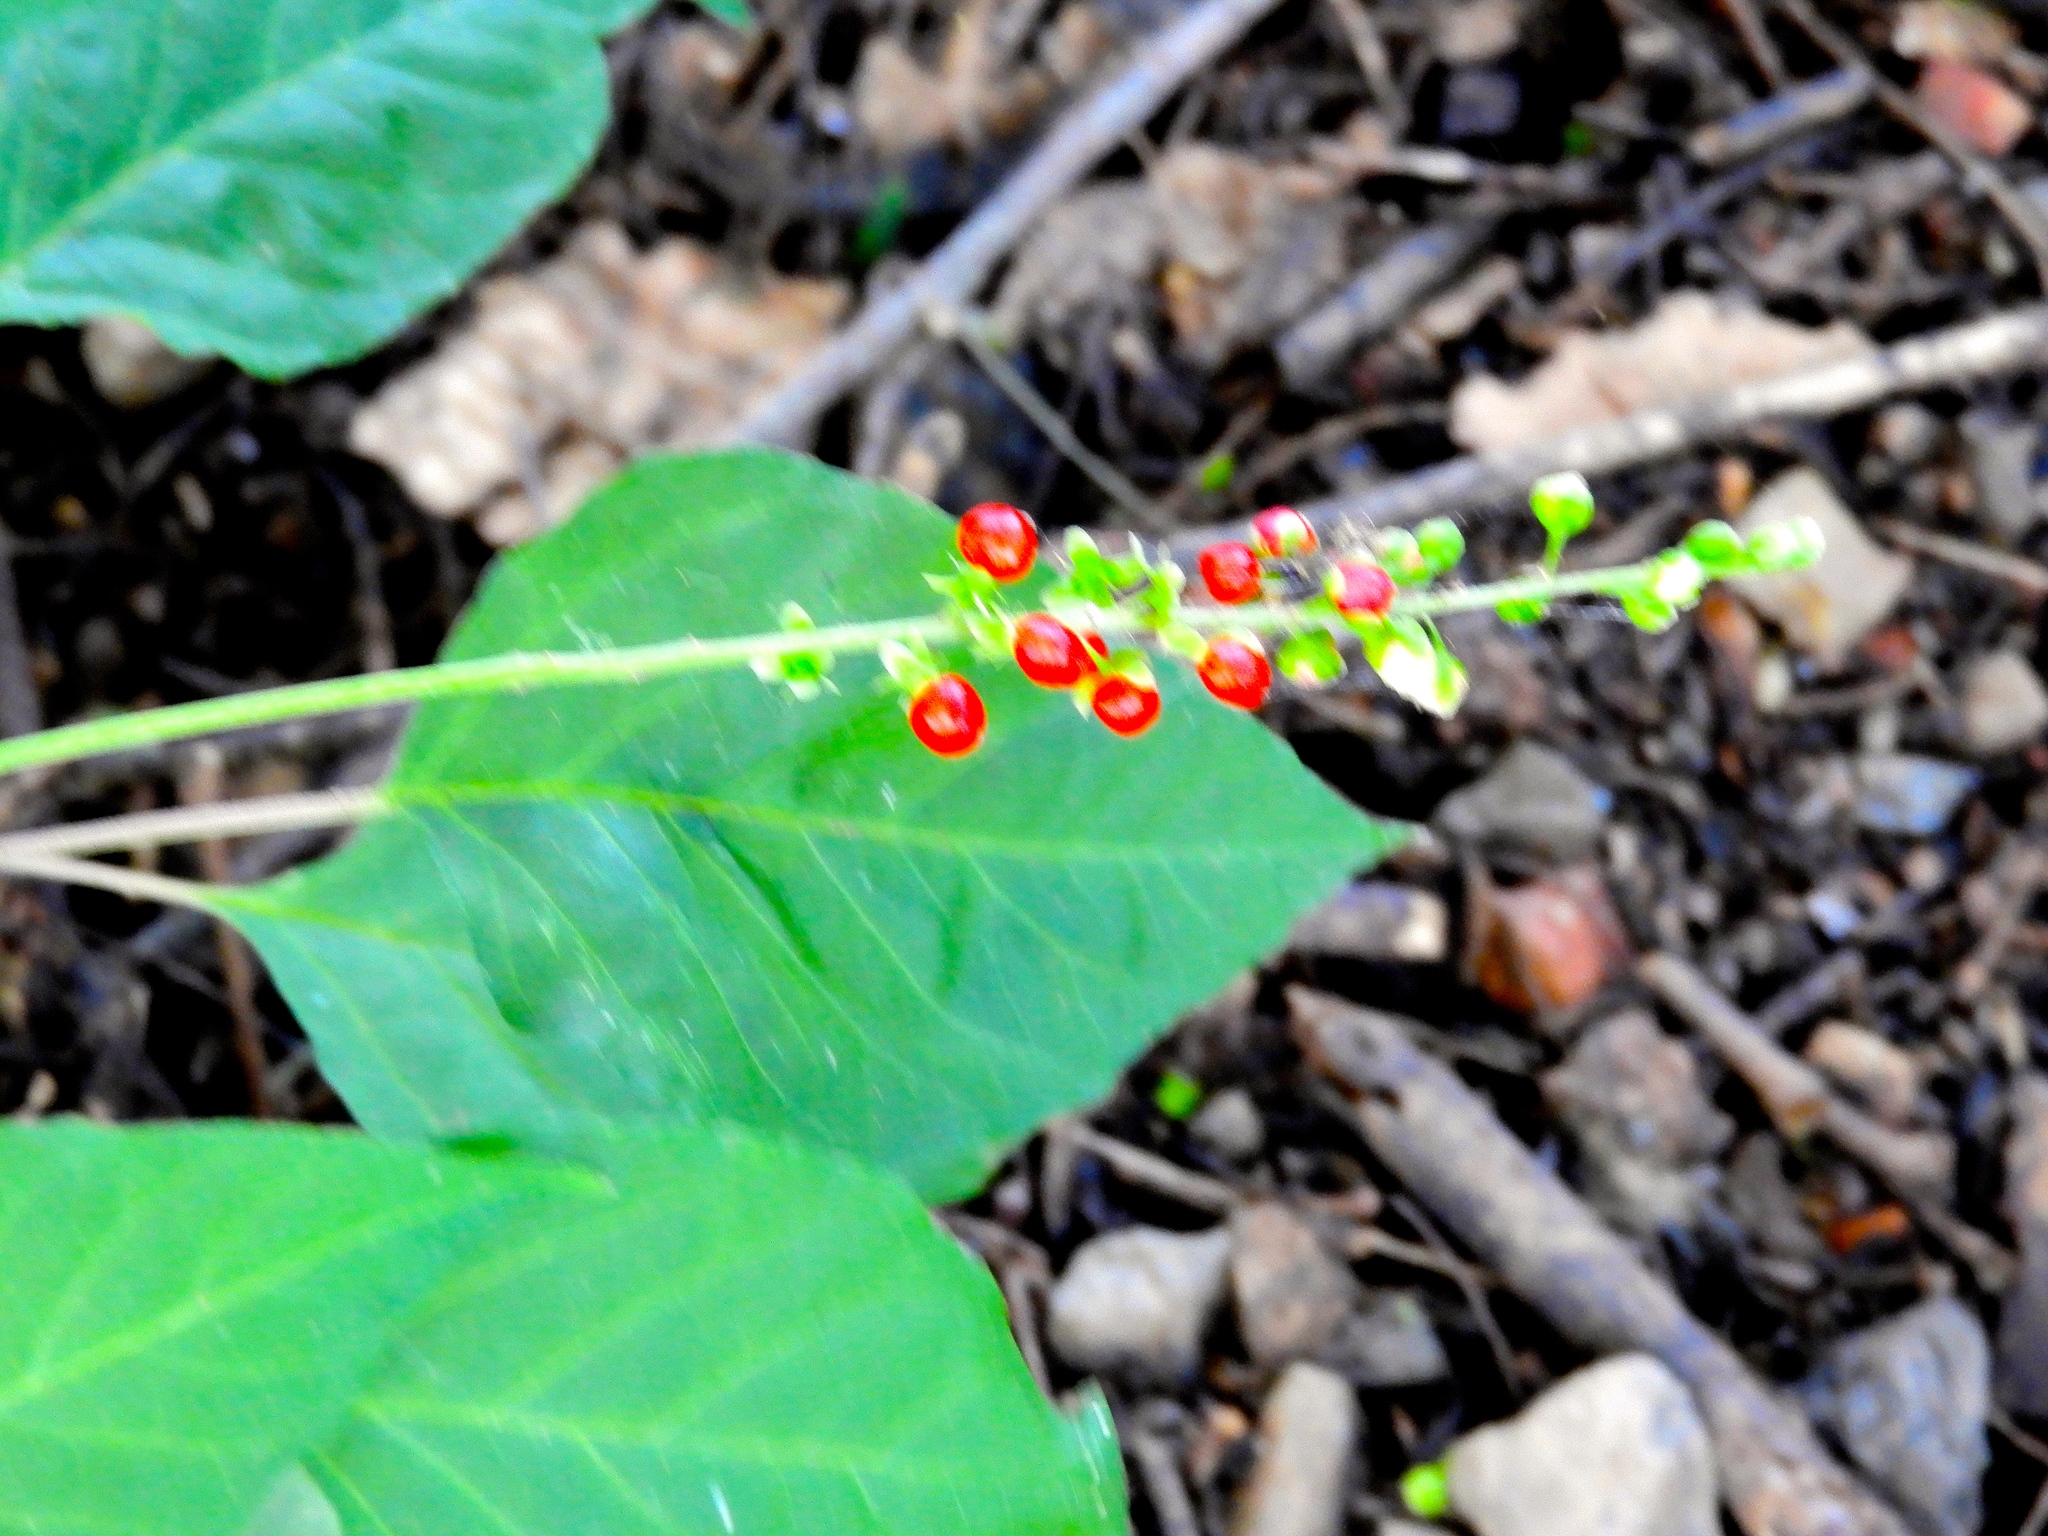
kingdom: Plantae
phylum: Tracheophyta
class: Magnoliopsida
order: Caryophyllales
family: Phytolaccaceae
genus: Rivina
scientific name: Rivina humilis
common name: Rougeplant
